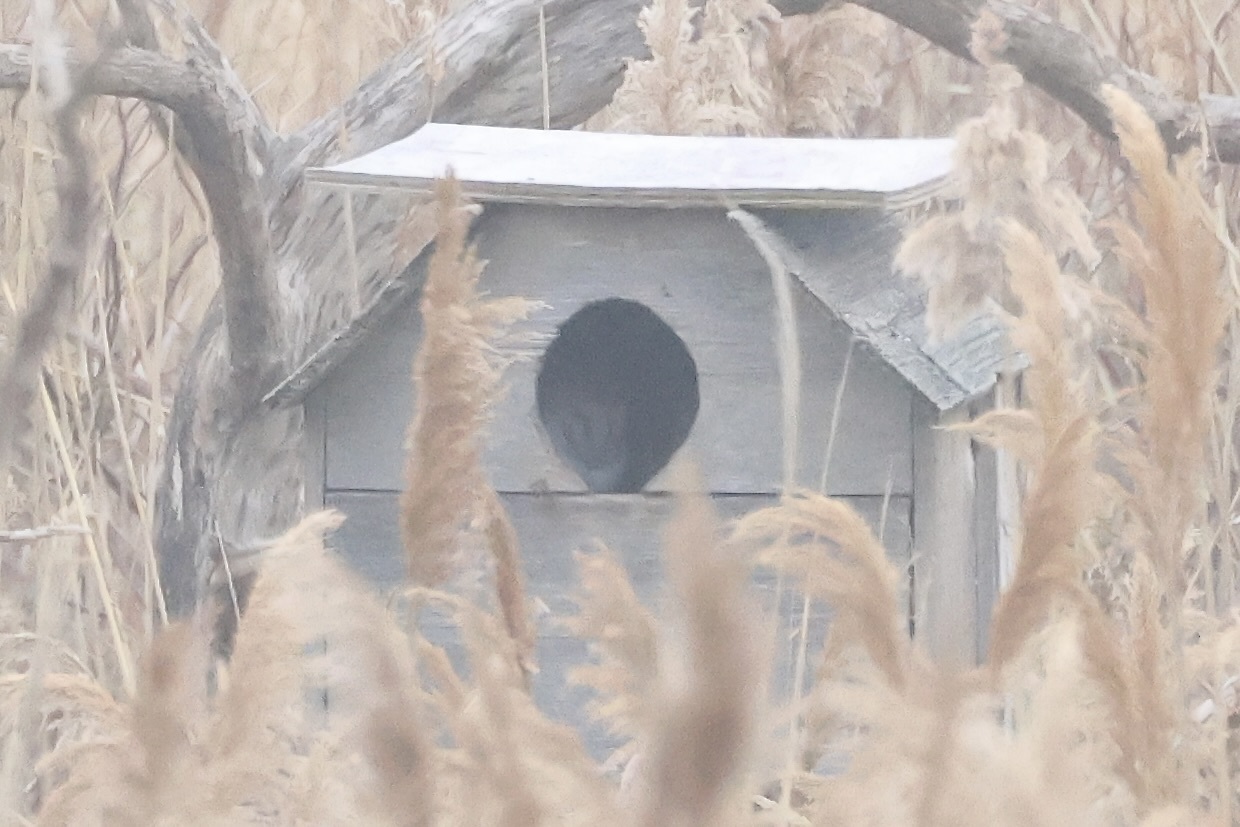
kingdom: Animalia
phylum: Chordata
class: Aves
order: Strigiformes
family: Tytonidae
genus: Tyto
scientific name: Tyto alba
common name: Barn owl
